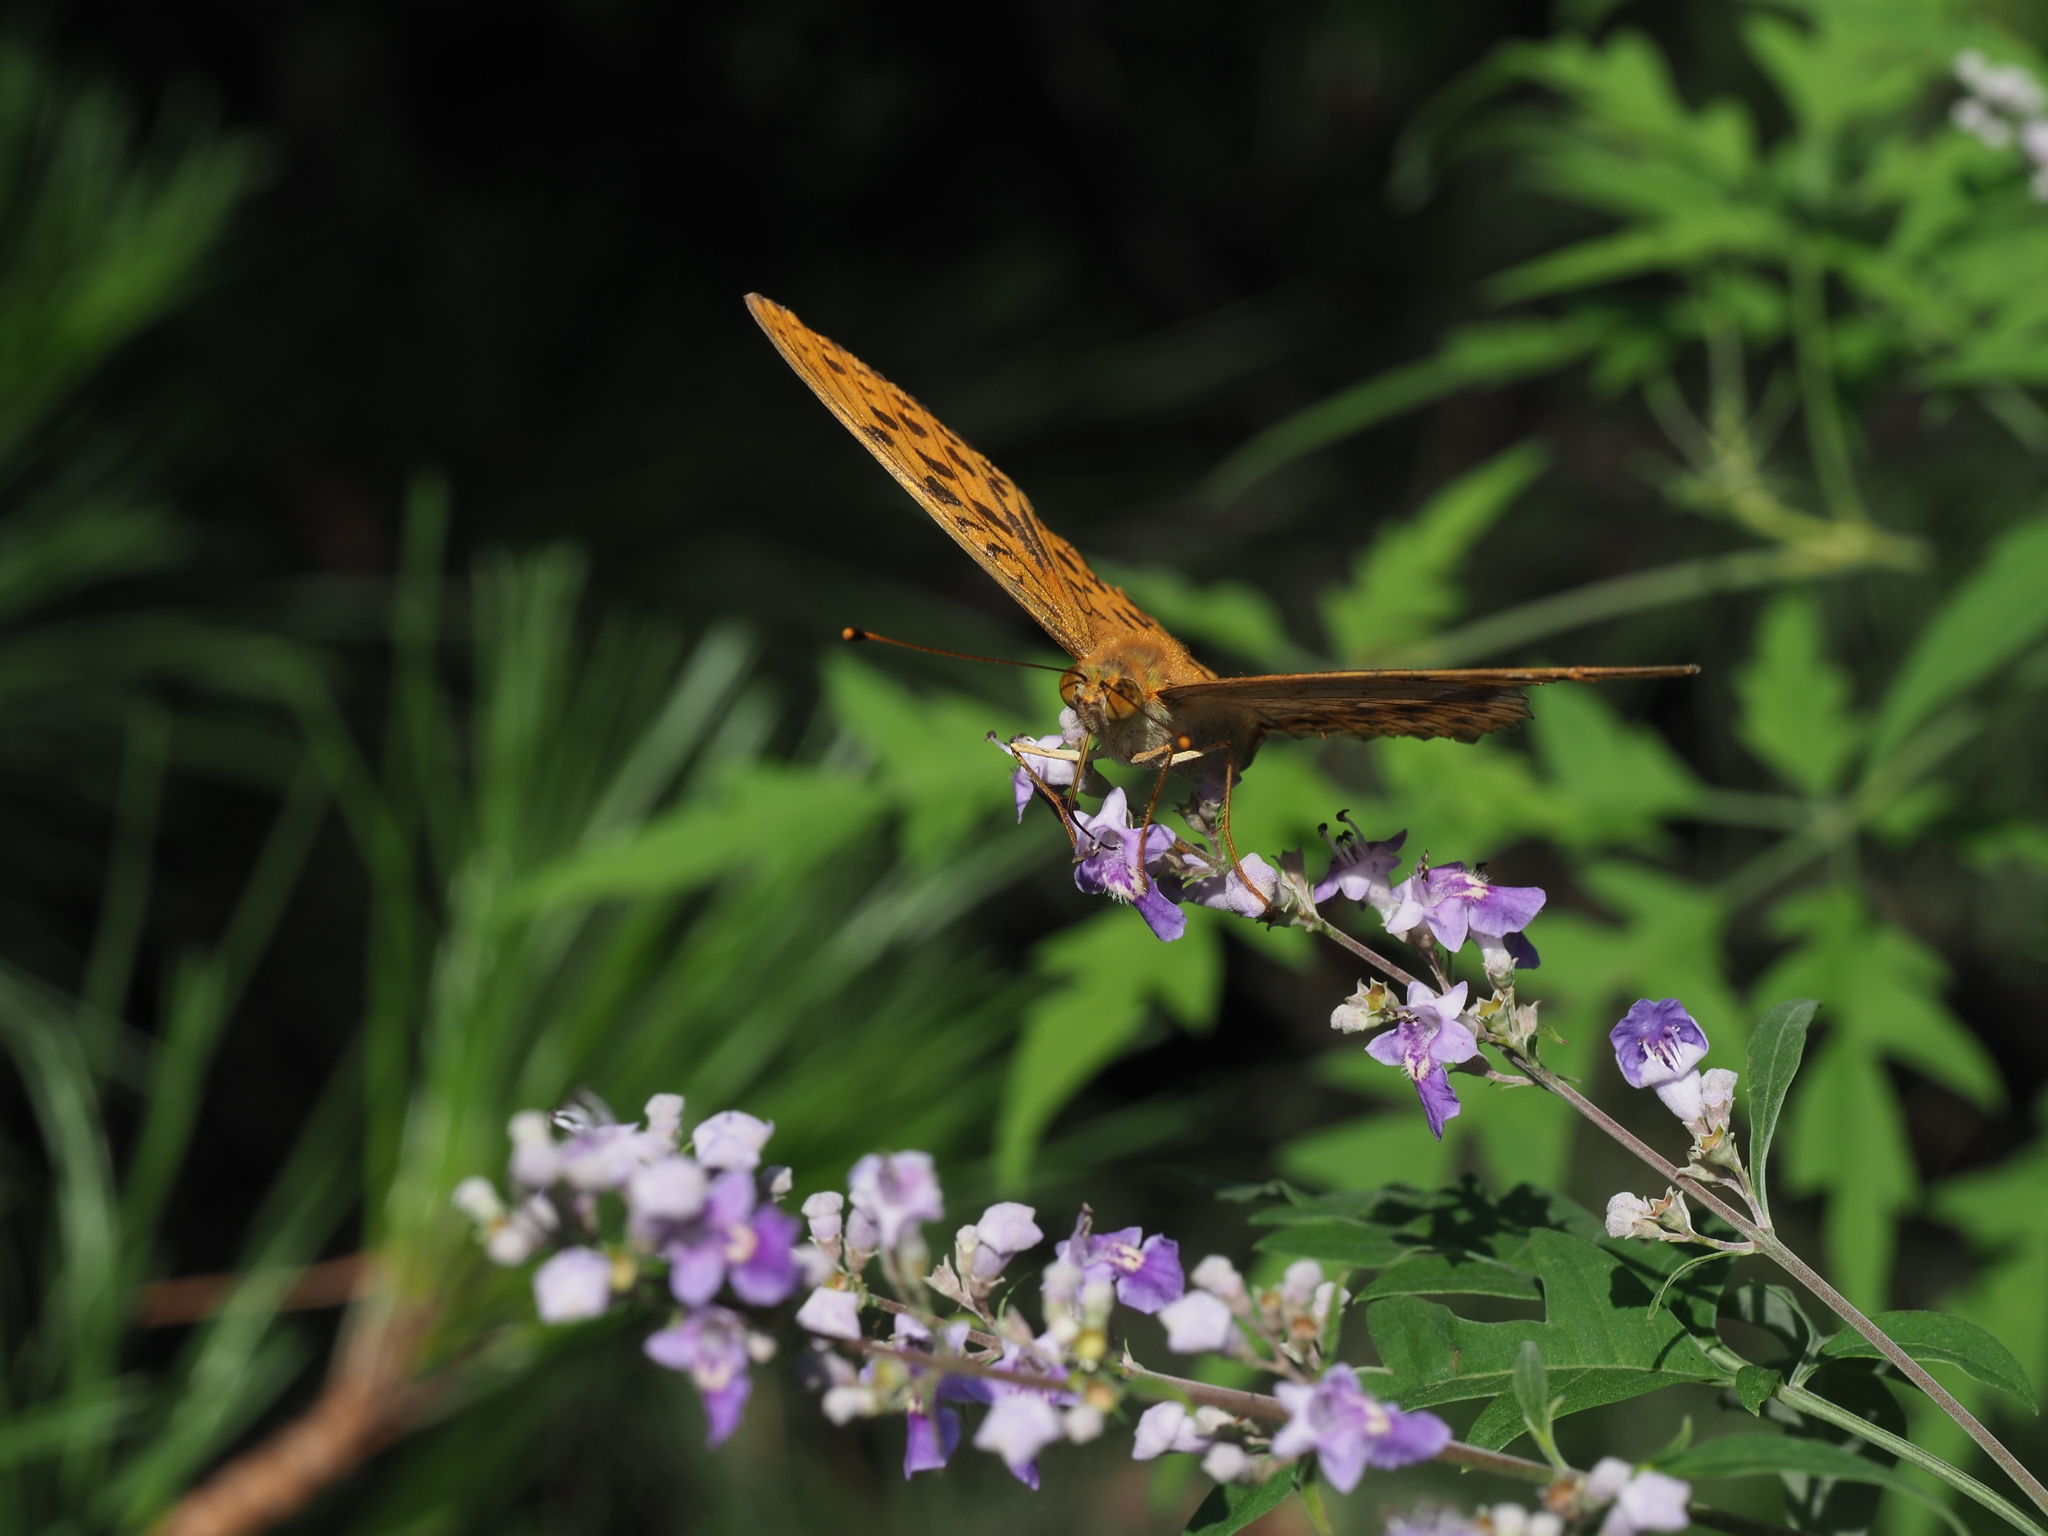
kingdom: Animalia
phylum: Arthropoda
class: Insecta
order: Lepidoptera
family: Nymphalidae
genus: Argyronome
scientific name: Argyronome laodice
